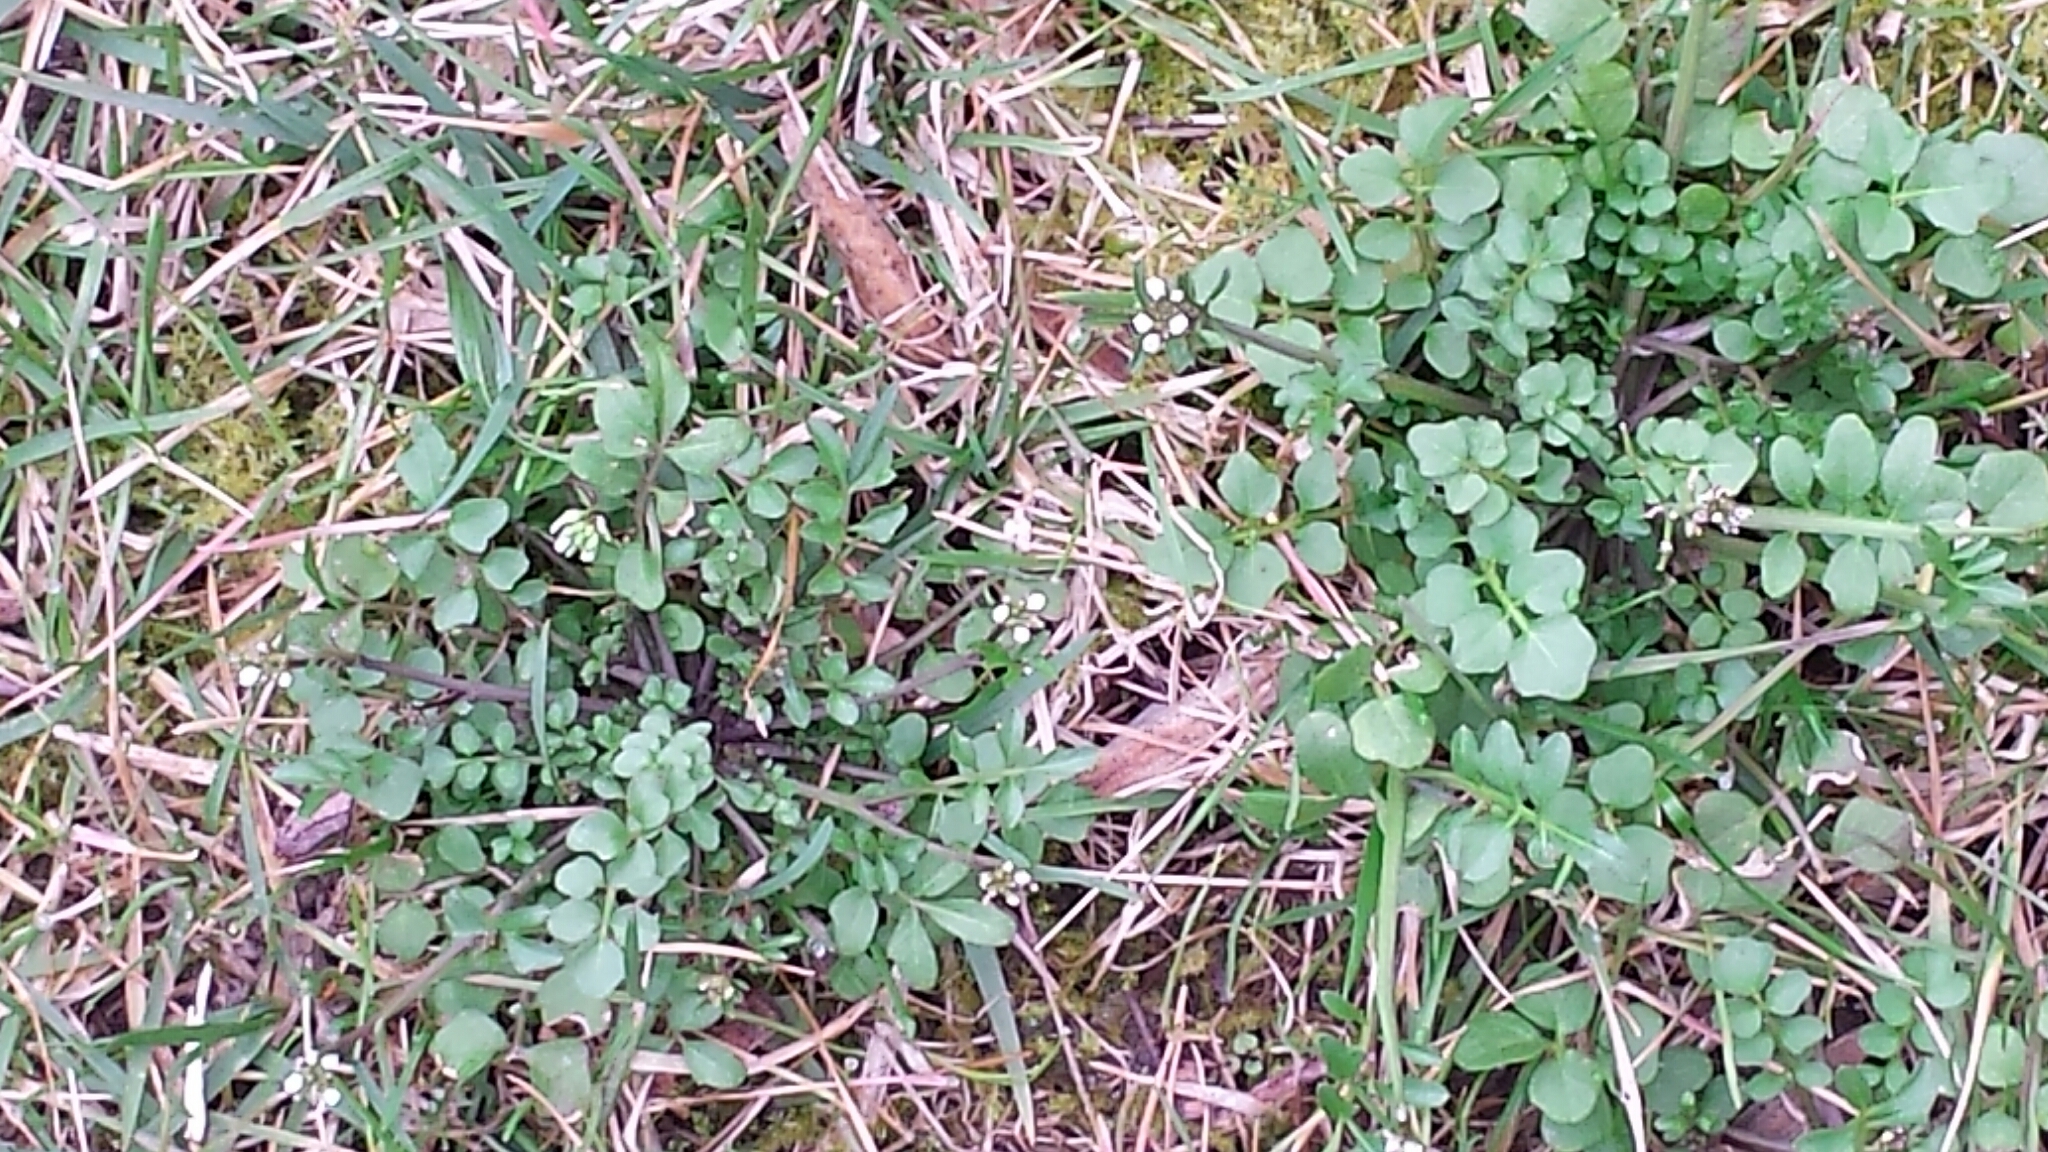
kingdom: Plantae
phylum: Tracheophyta
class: Magnoliopsida
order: Brassicales
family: Brassicaceae
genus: Cardamine
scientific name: Cardamine hirsuta
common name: Hairy bittercress
